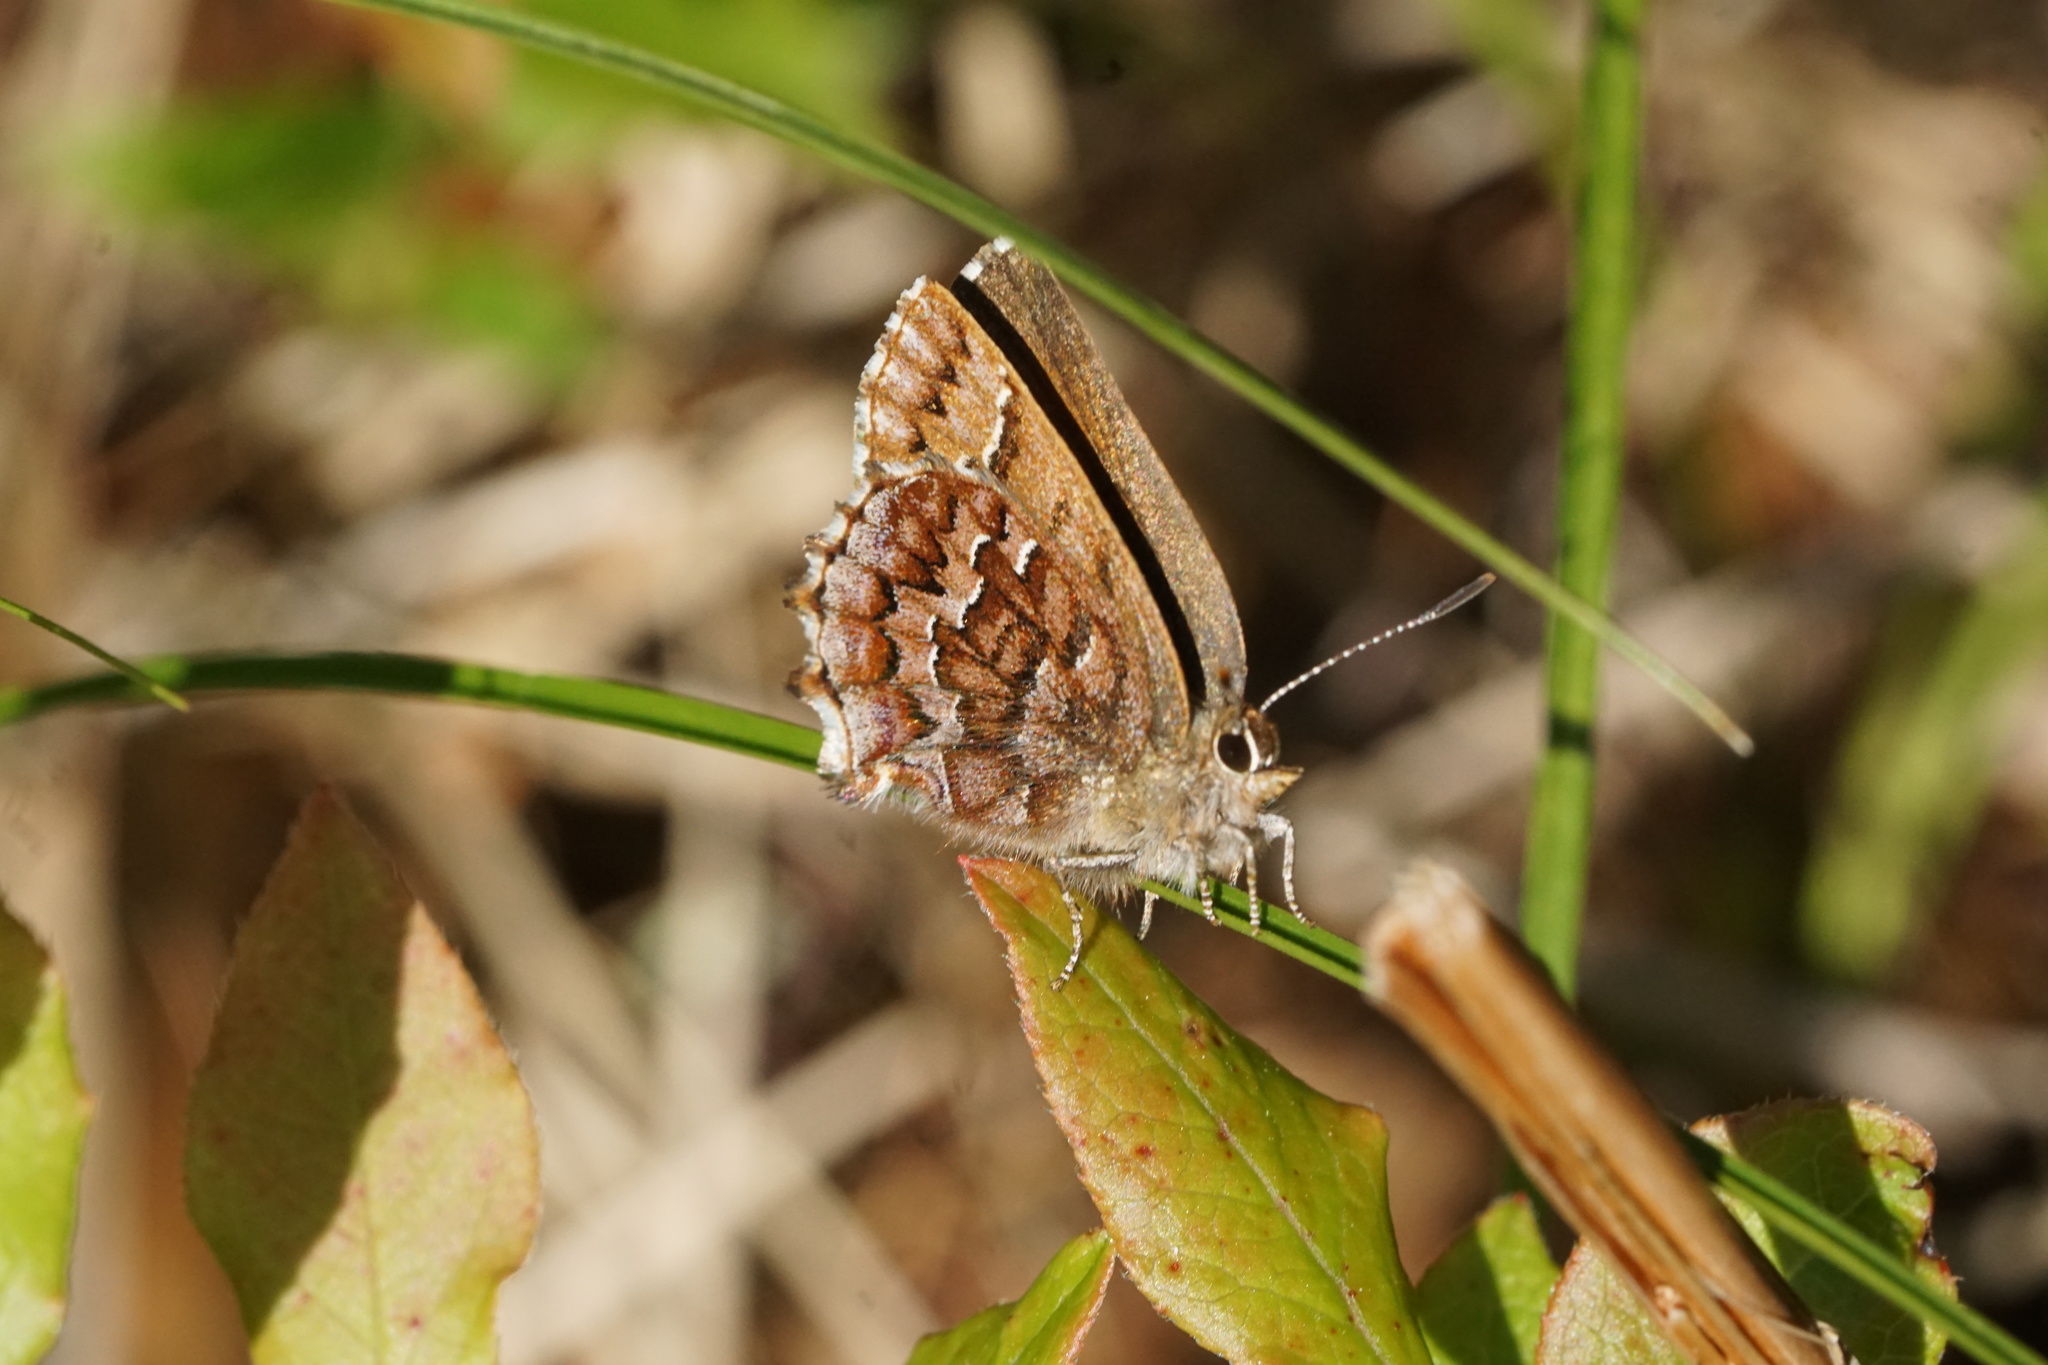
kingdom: Animalia
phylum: Arthropoda
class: Insecta
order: Lepidoptera
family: Lycaenidae
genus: Incisalia
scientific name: Incisalia niphon
